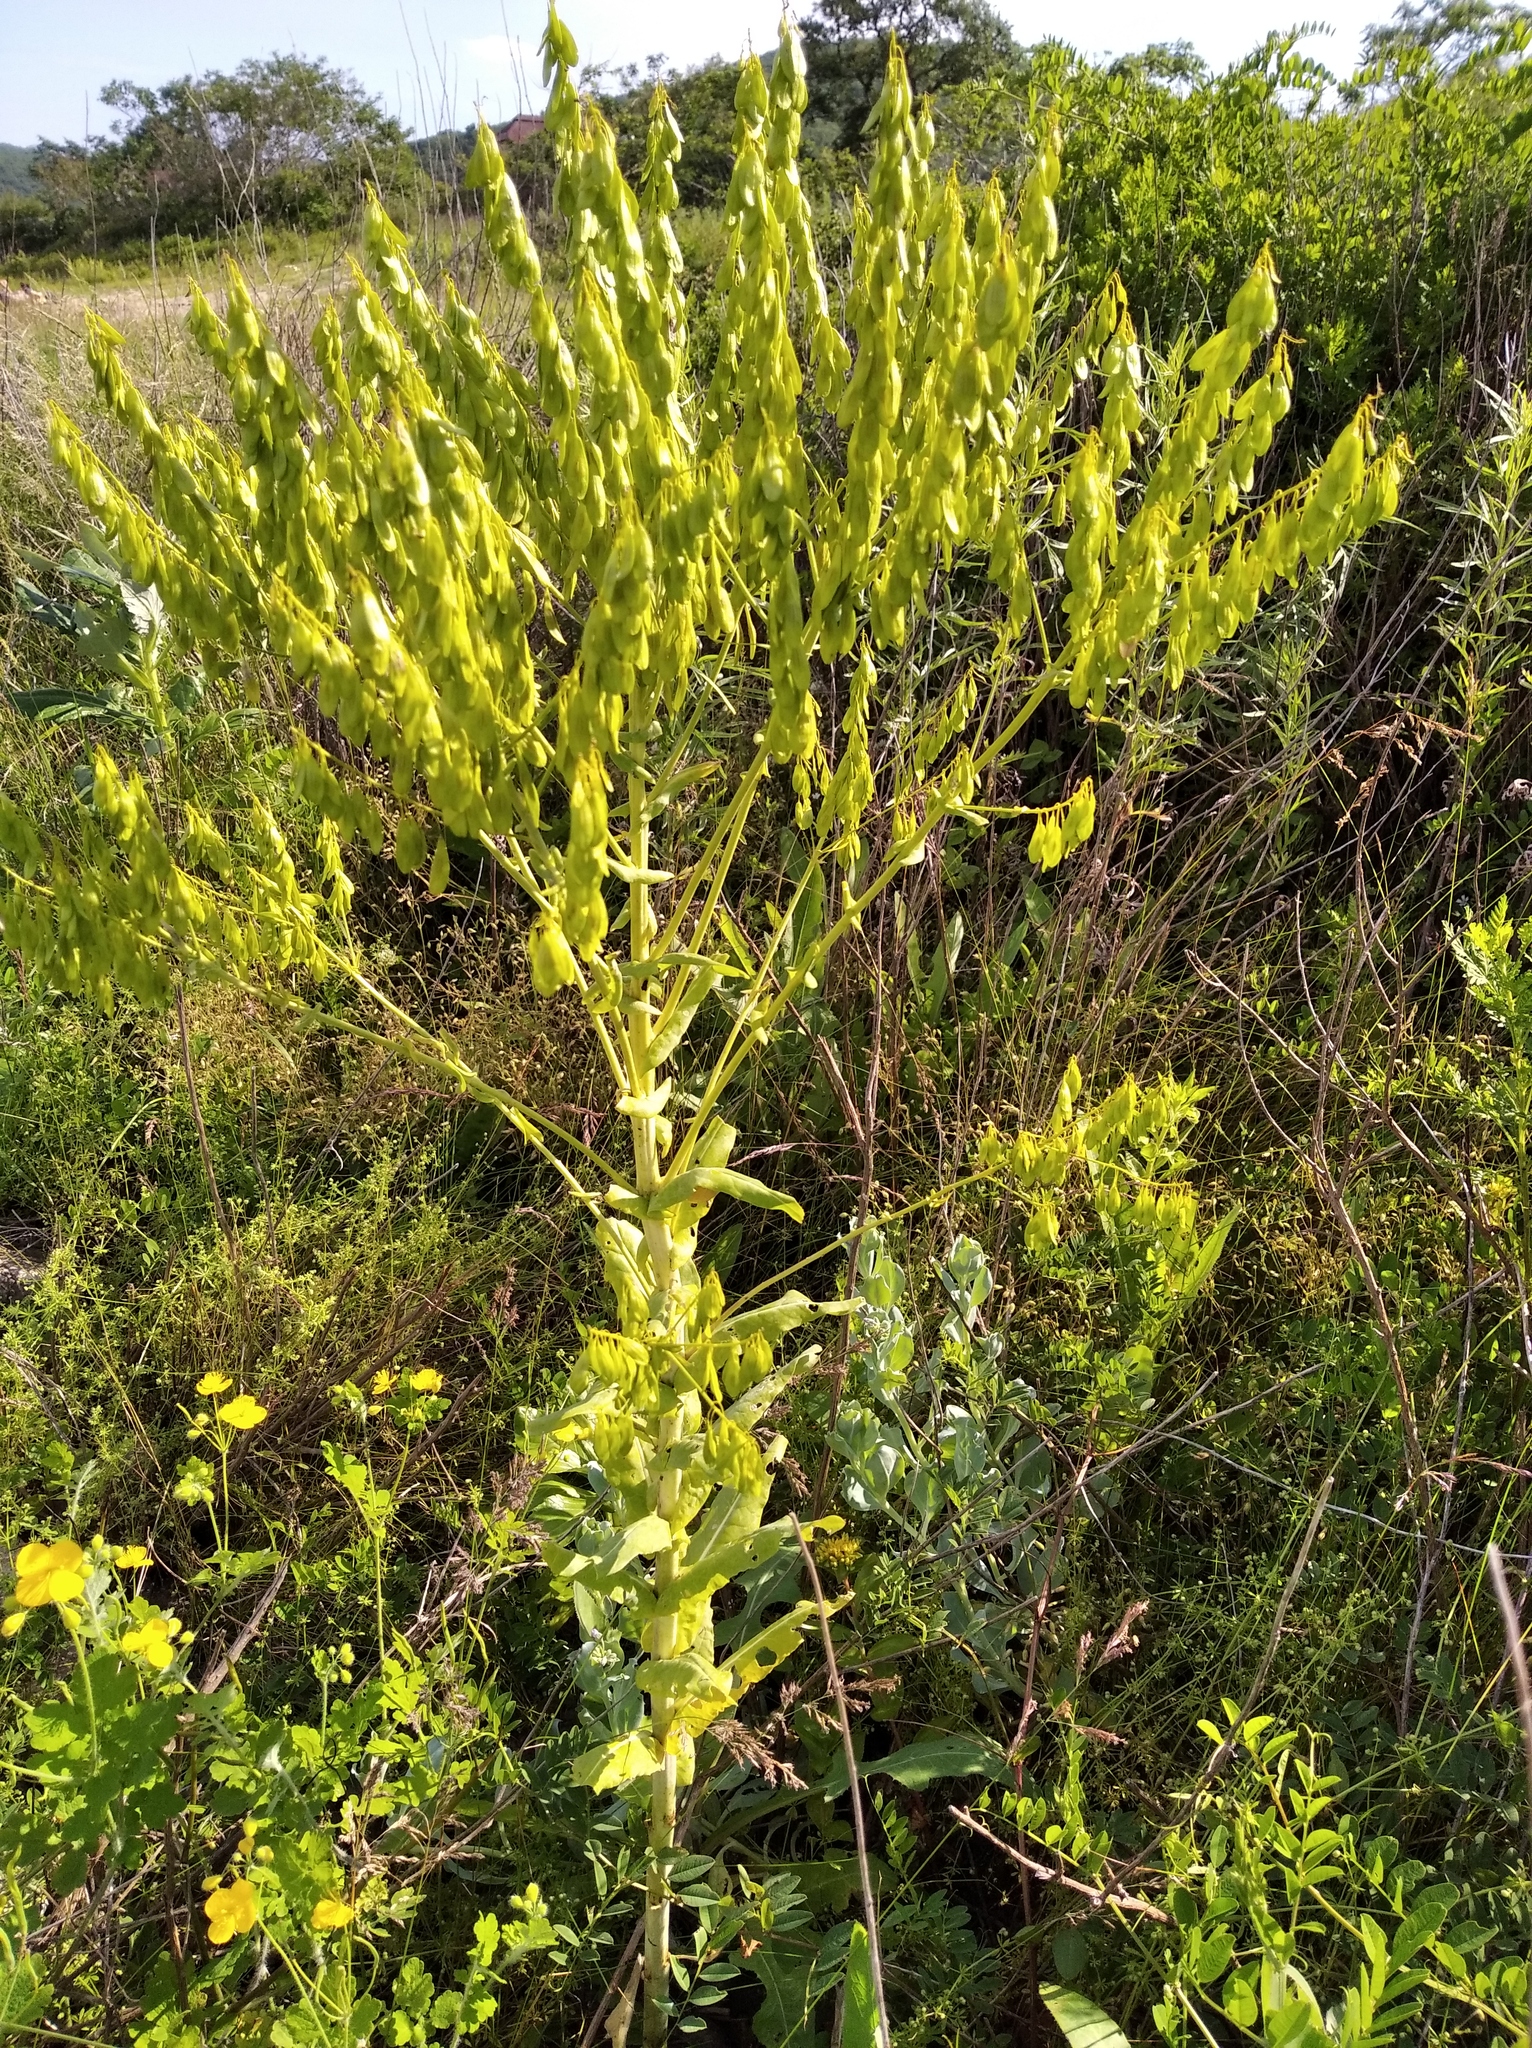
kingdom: Plantae
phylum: Tracheophyta
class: Magnoliopsida
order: Brassicales
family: Brassicaceae
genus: Isatis
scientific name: Isatis tinctoria
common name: Woad
